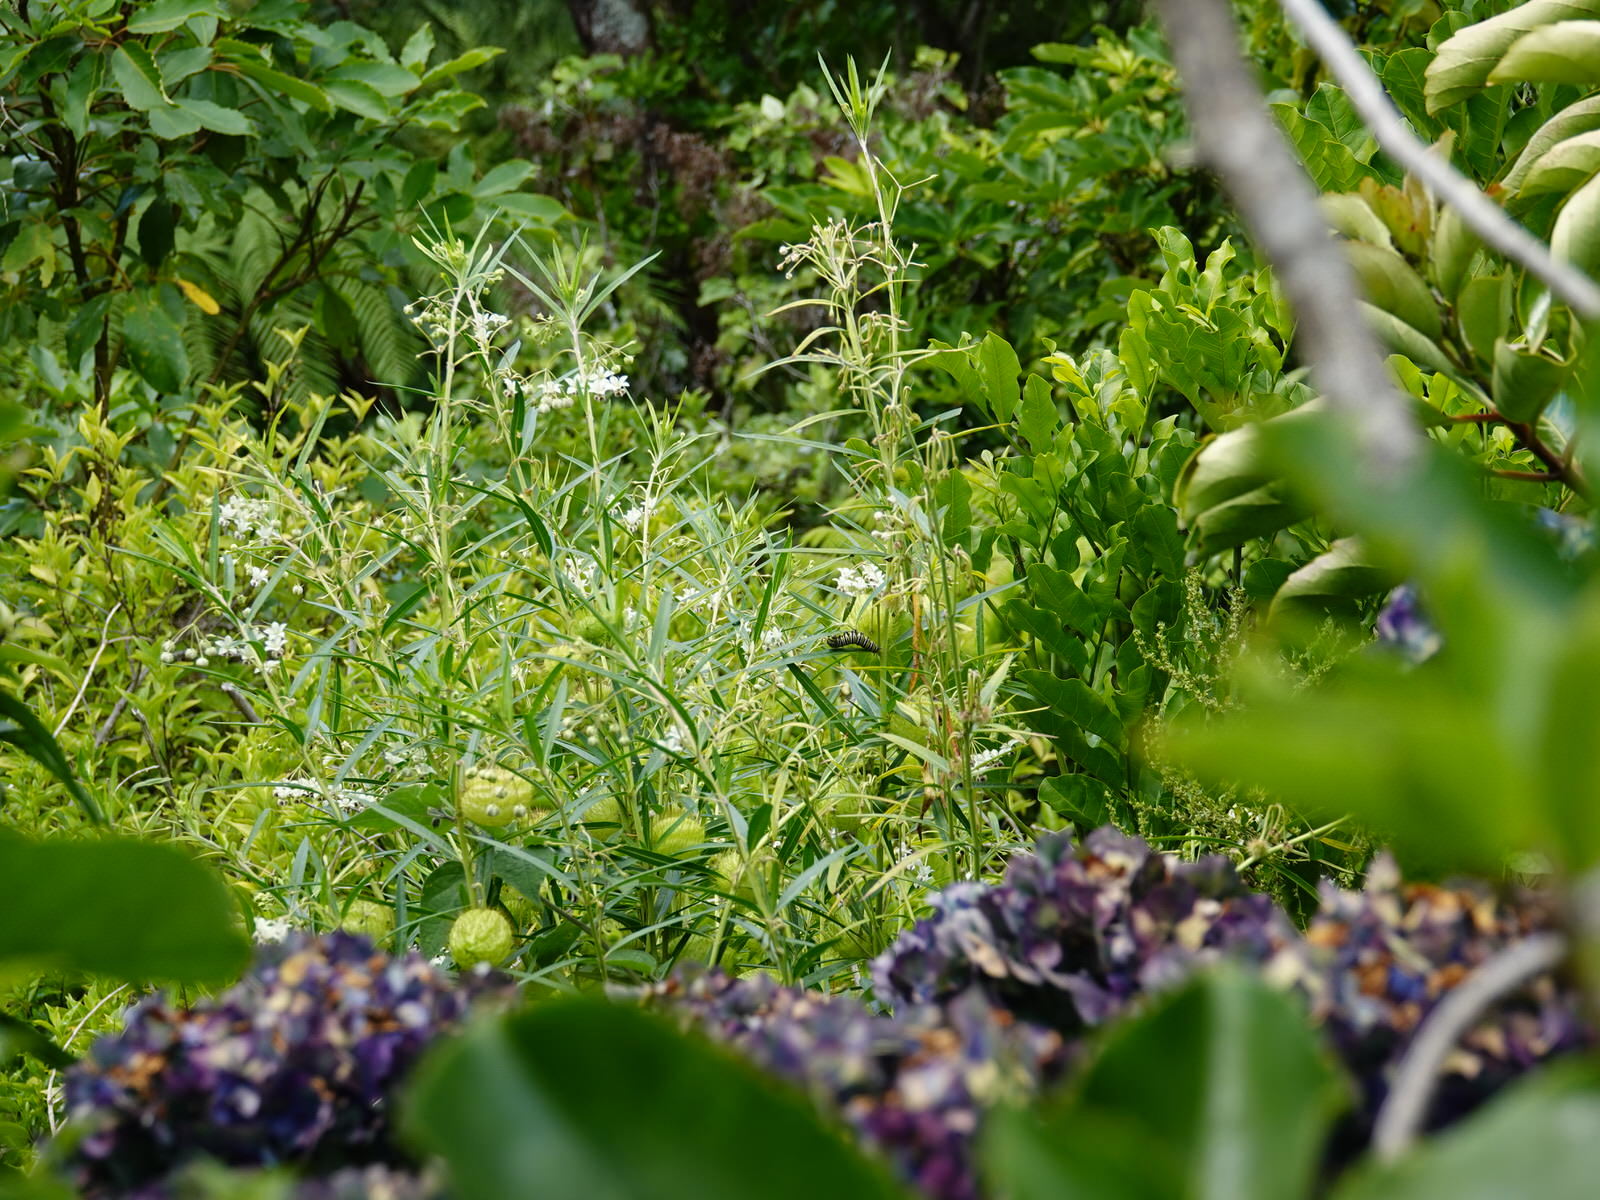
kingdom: Animalia
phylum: Arthropoda
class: Insecta
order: Lepidoptera
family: Nymphalidae
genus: Danaus
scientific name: Danaus plexippus
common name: Monarch
